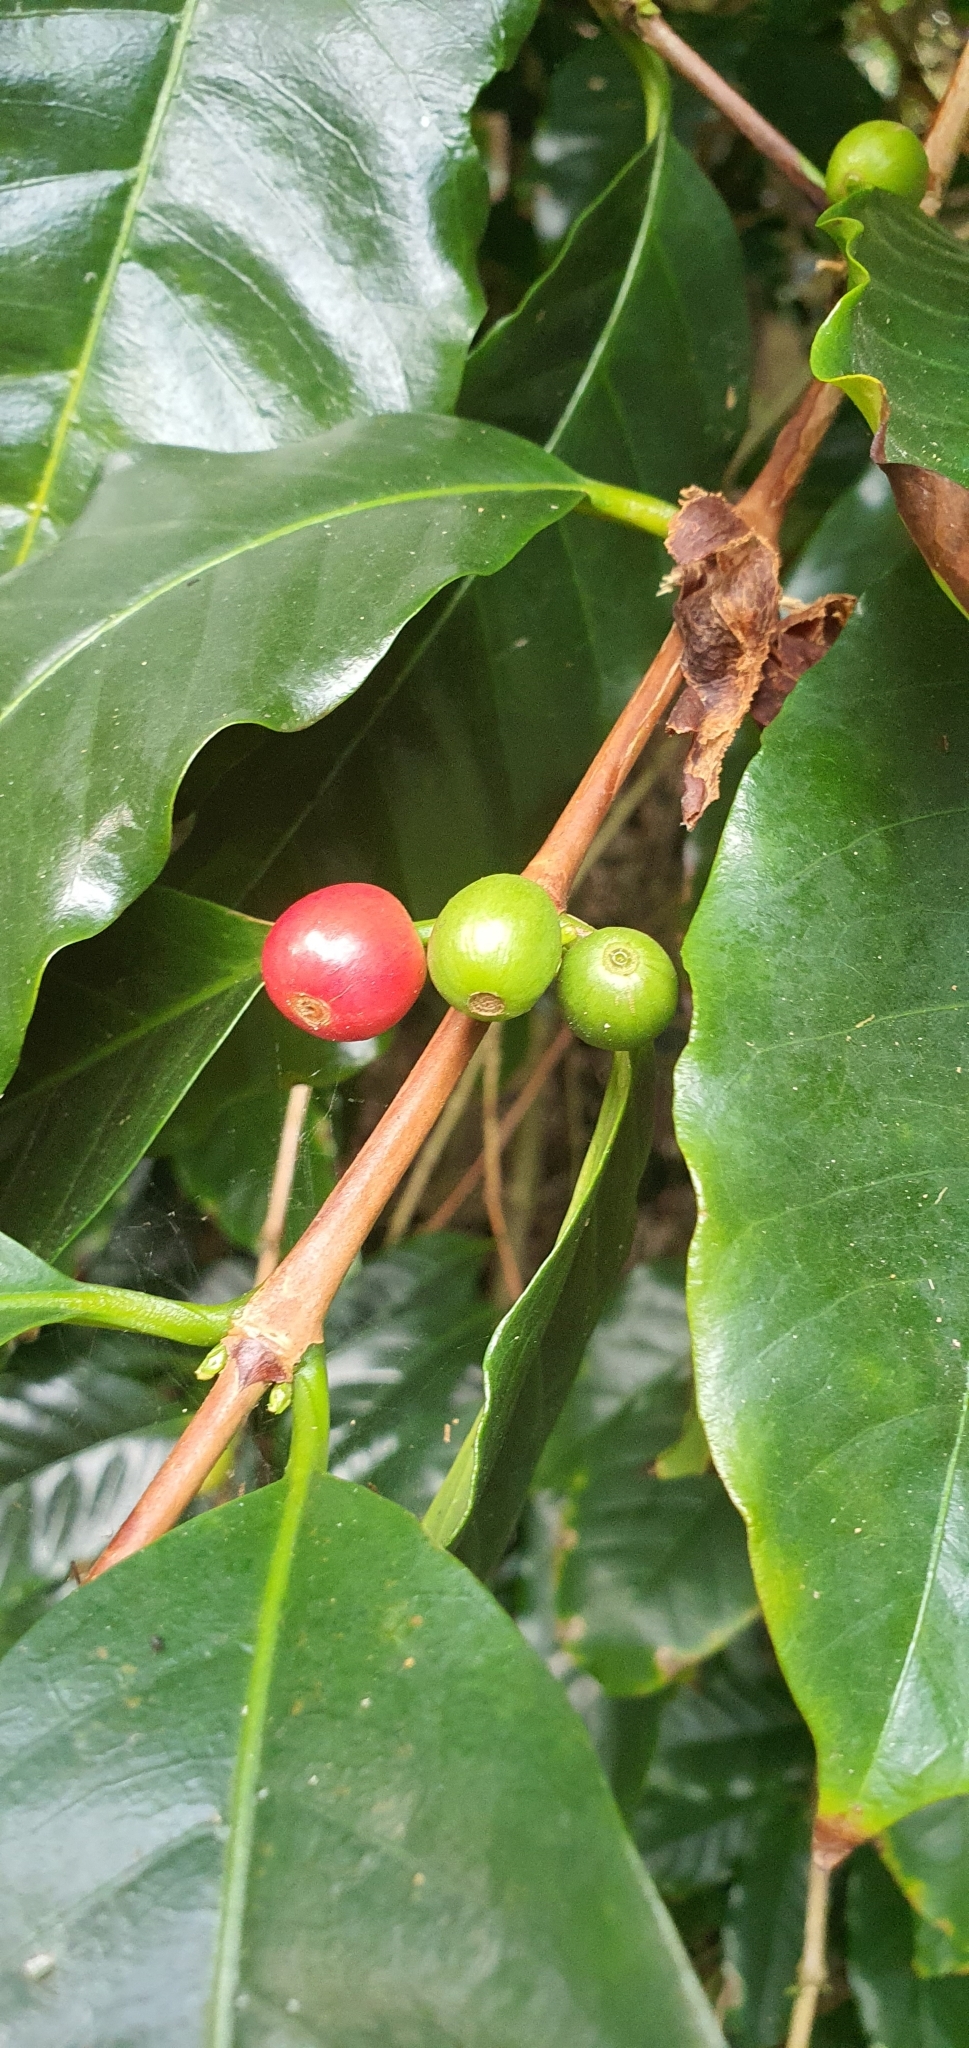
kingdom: Plantae
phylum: Tracheophyta
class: Magnoliopsida
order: Gentianales
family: Rubiaceae
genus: Coffea
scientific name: Coffea arabica
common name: Coffee
